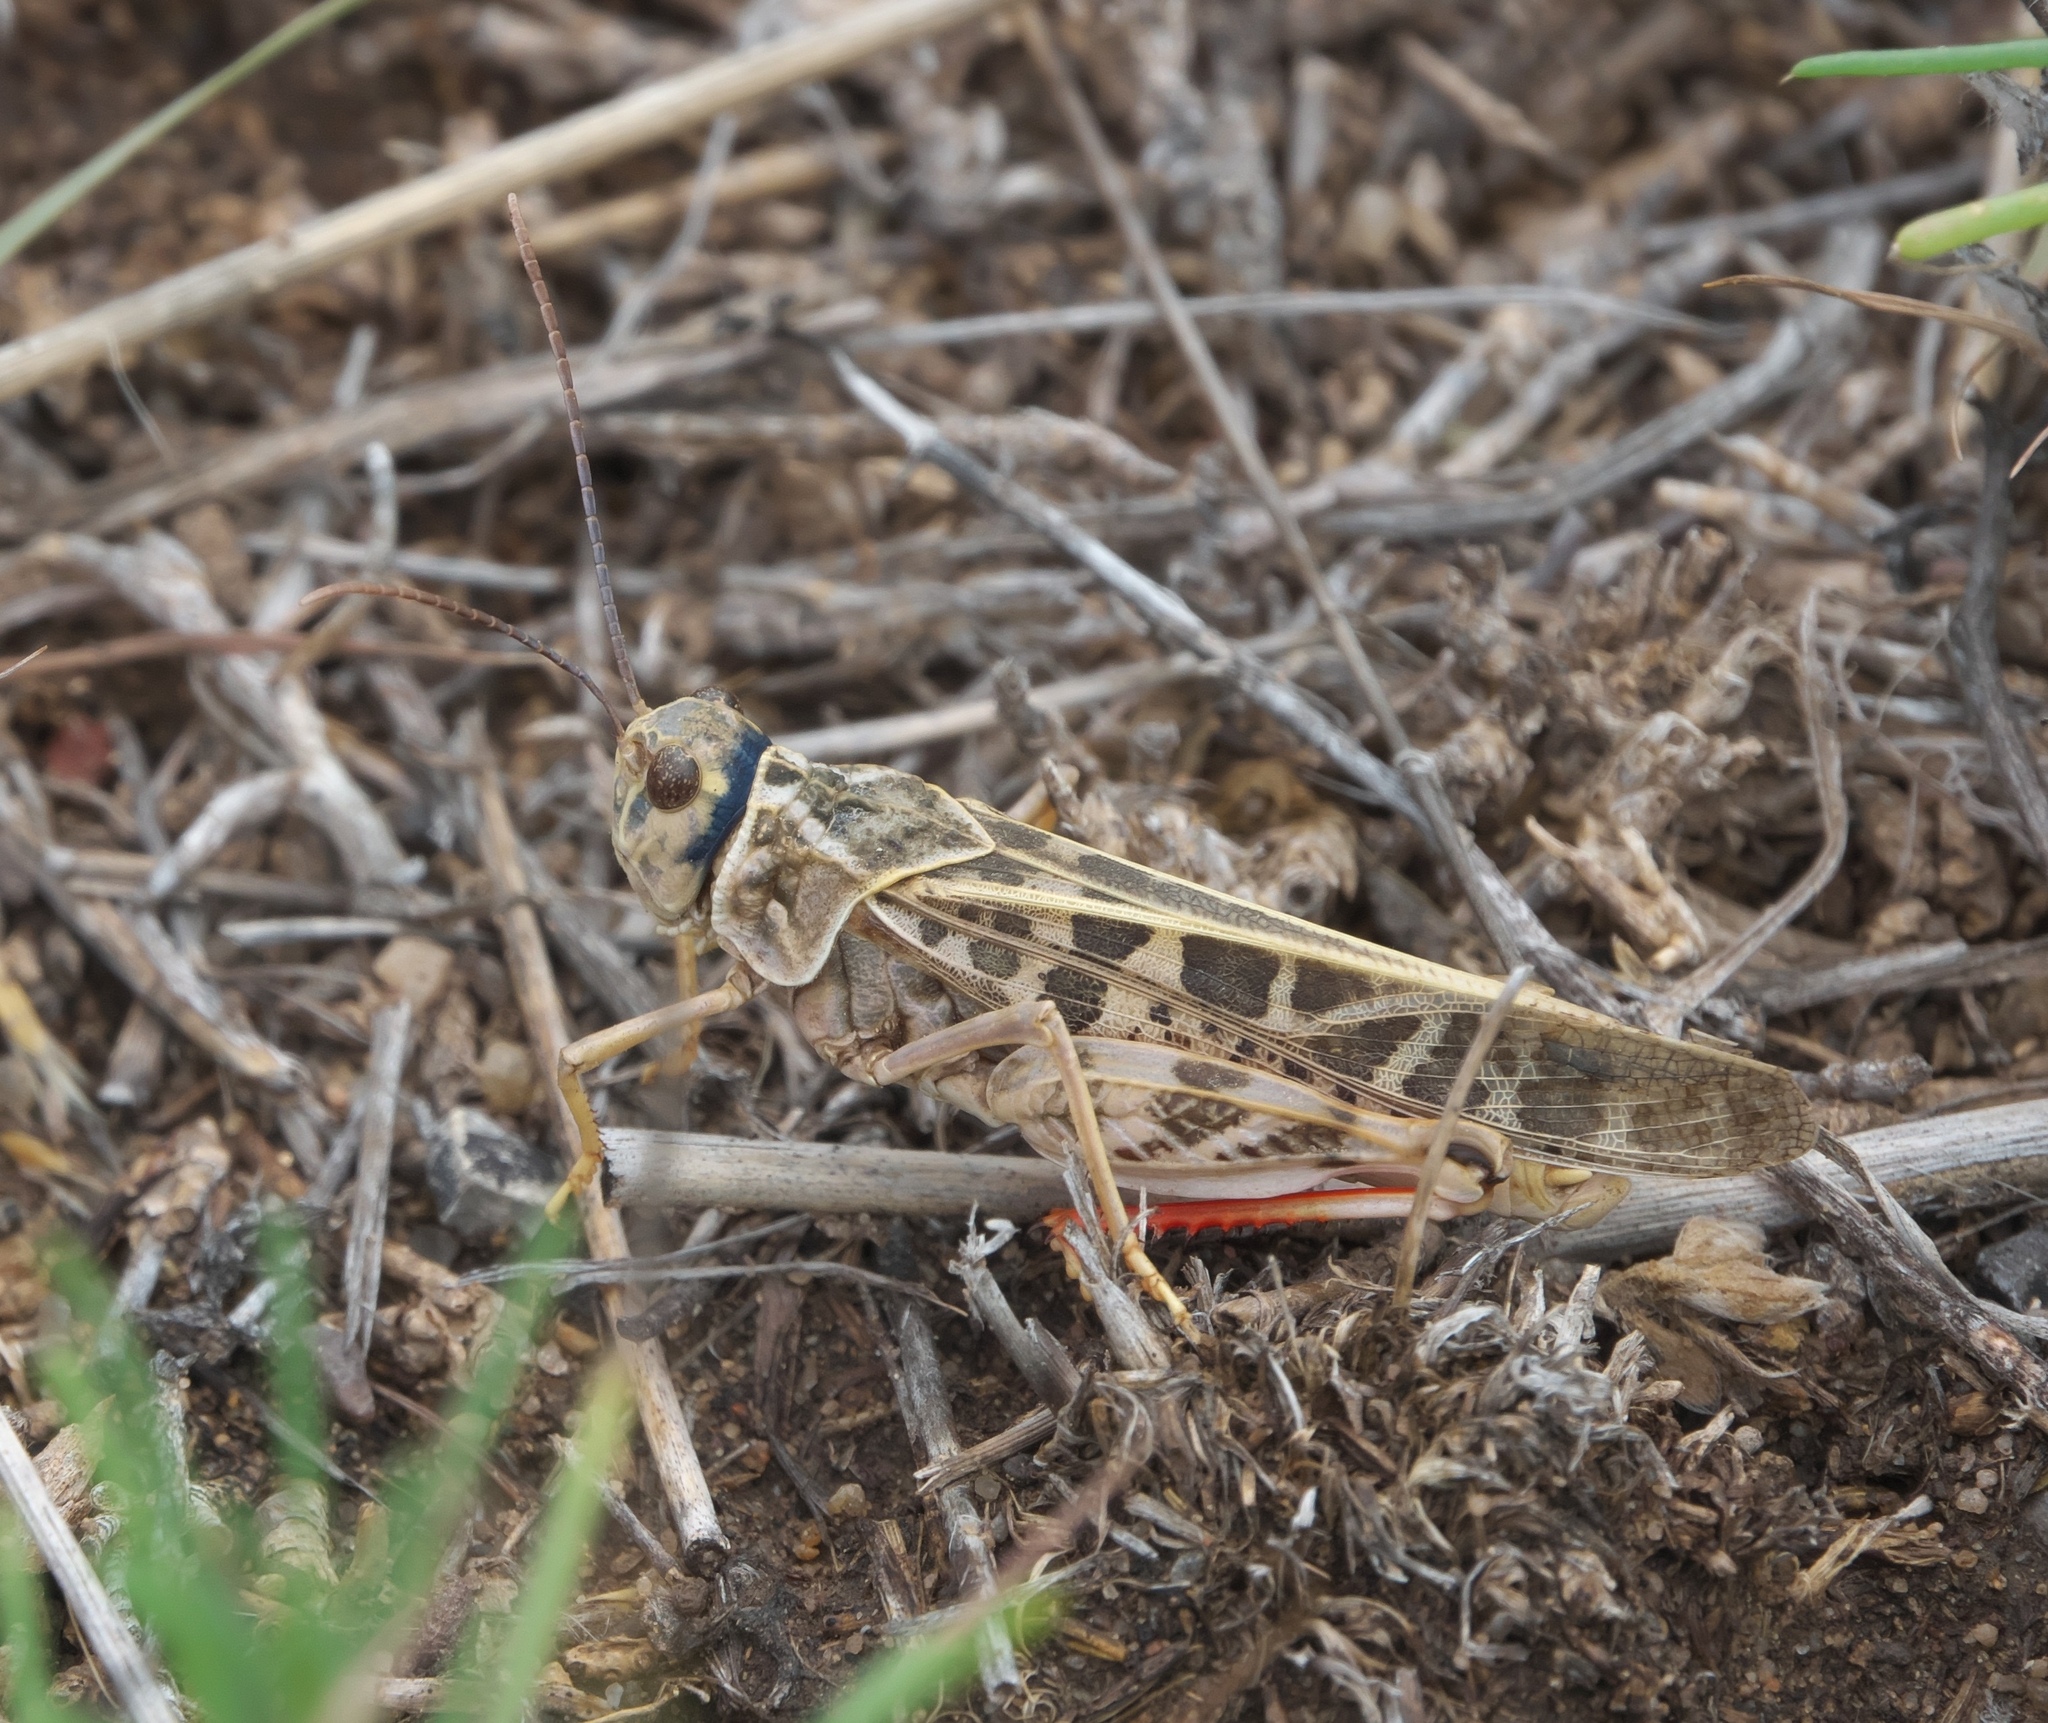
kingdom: Animalia
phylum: Arthropoda
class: Insecta
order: Orthoptera
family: Acrididae
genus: Xanthippus
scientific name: Xanthippus corallipes
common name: Redshanked grasshopper
